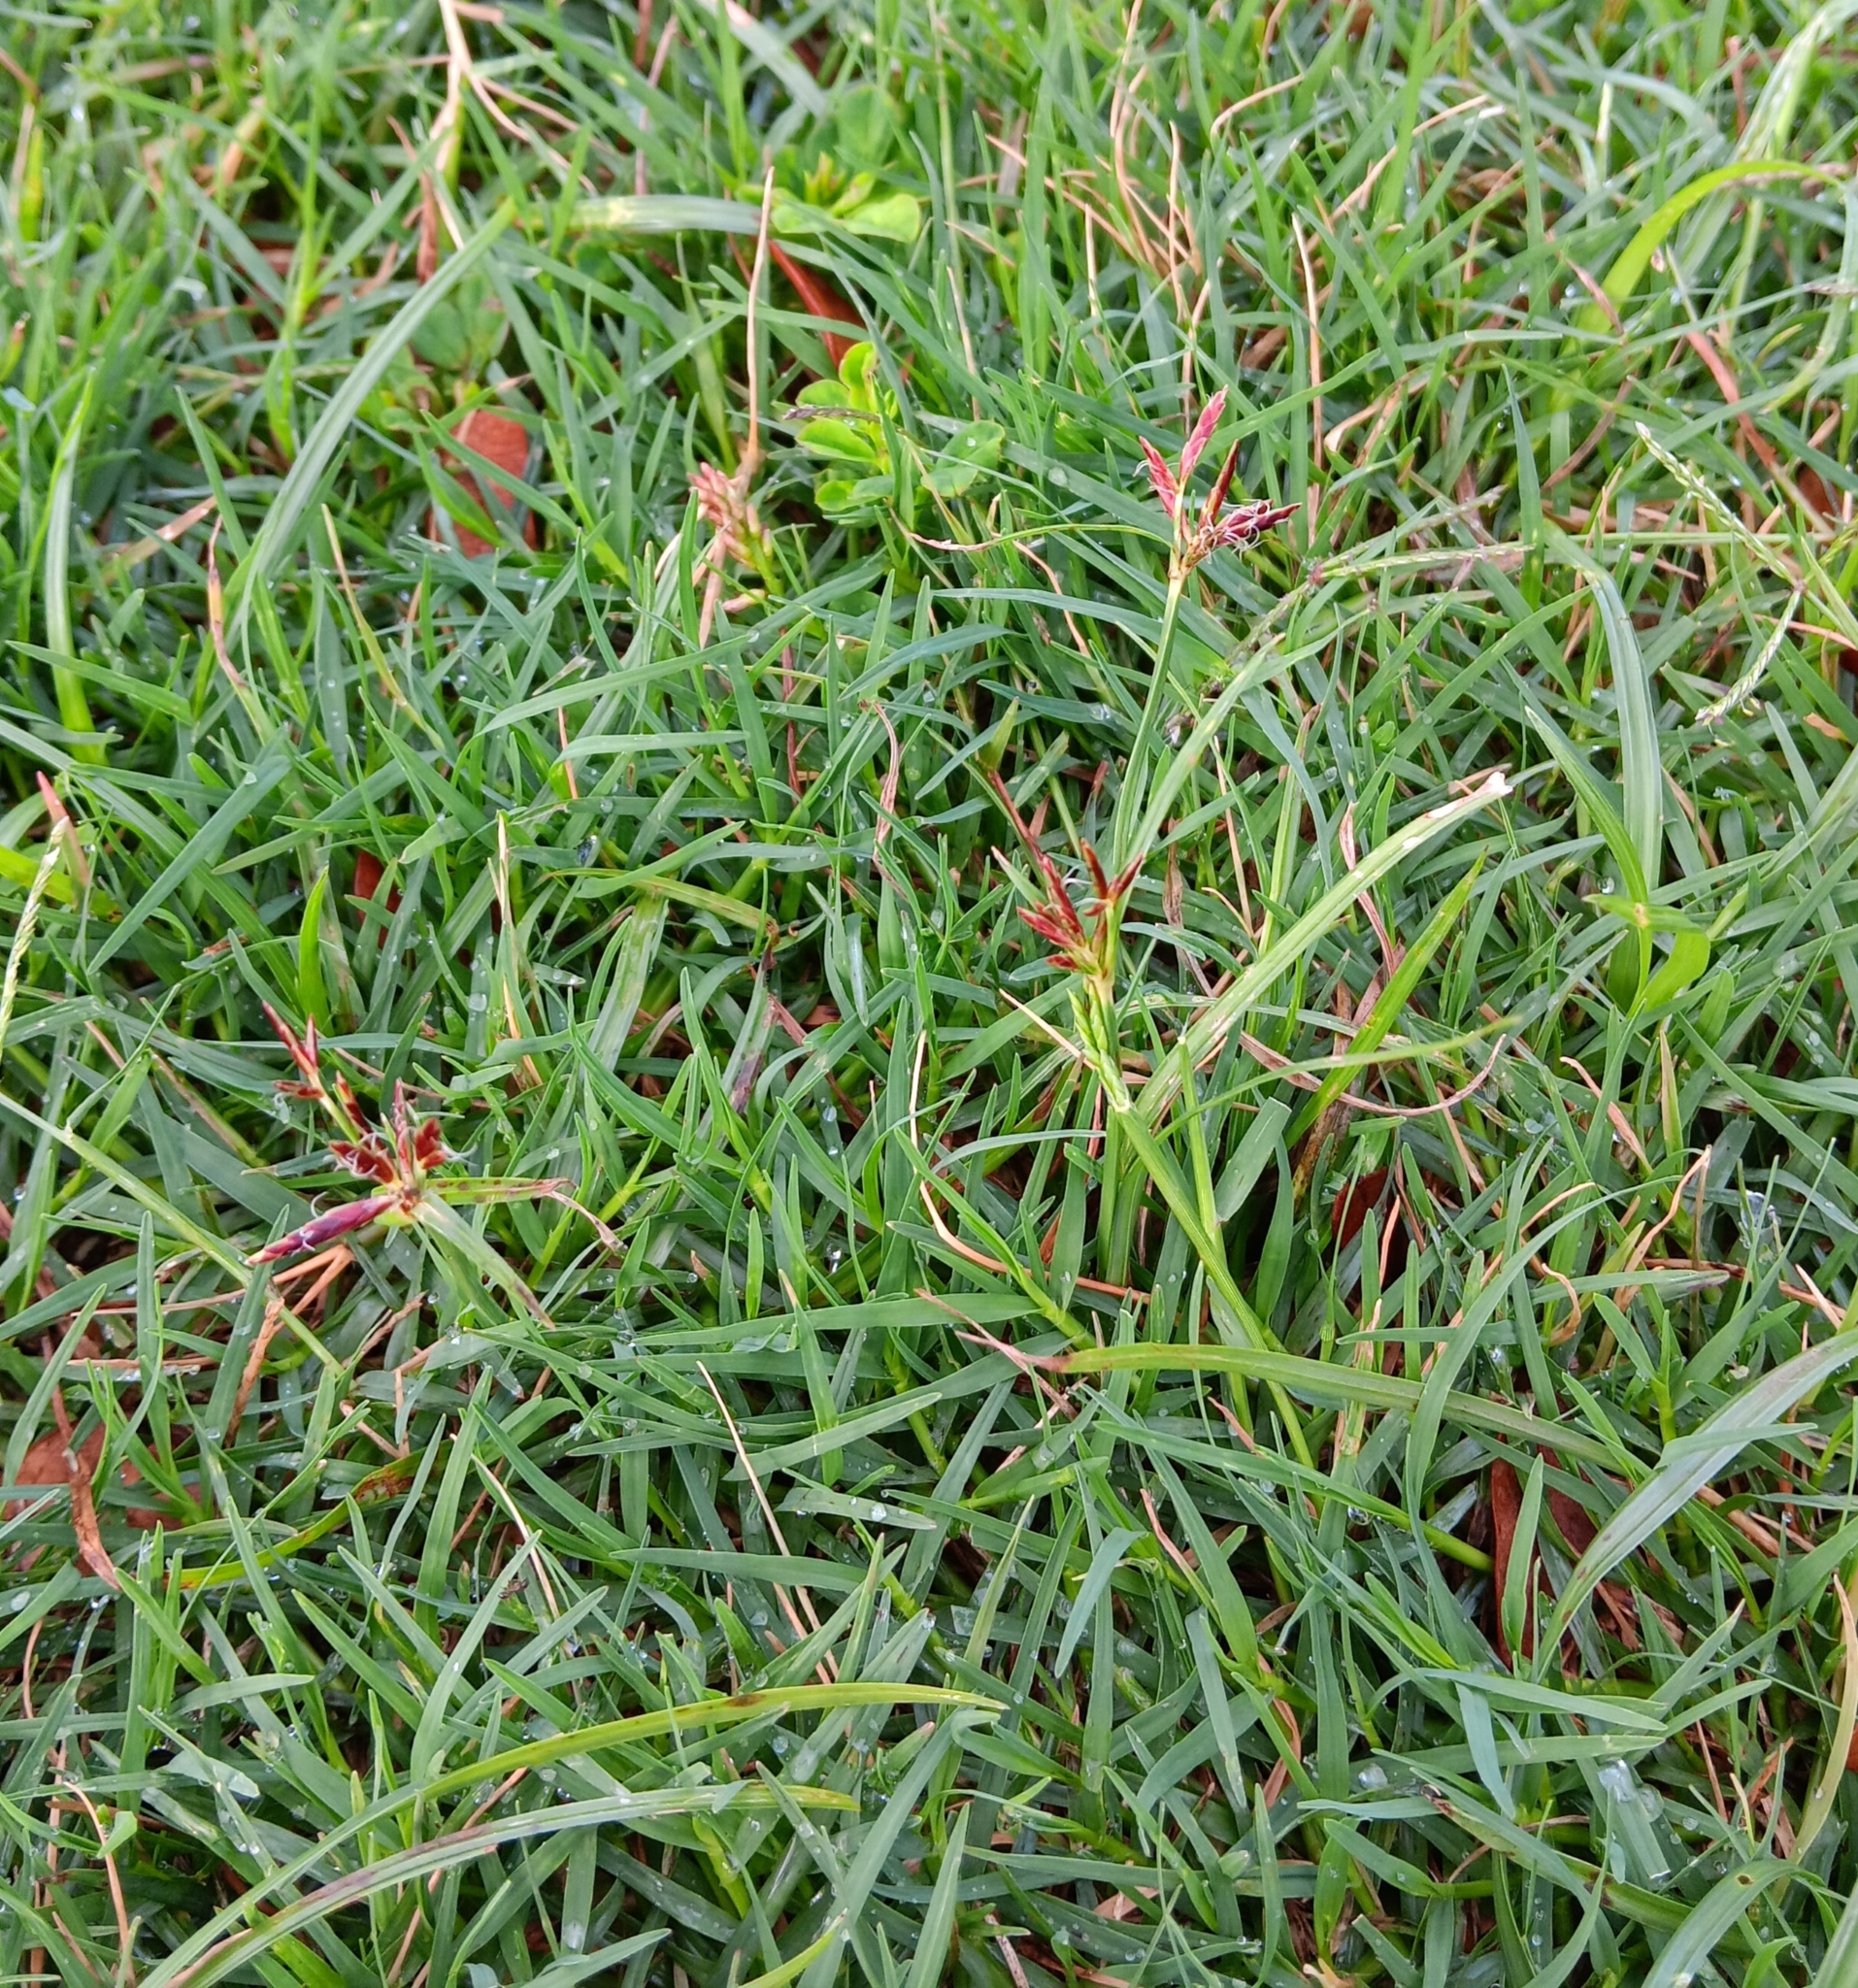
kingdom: Plantae
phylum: Tracheophyta
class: Liliopsida
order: Poales
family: Cyperaceae
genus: Cyperus
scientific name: Cyperus rotundus
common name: Nutgrass
